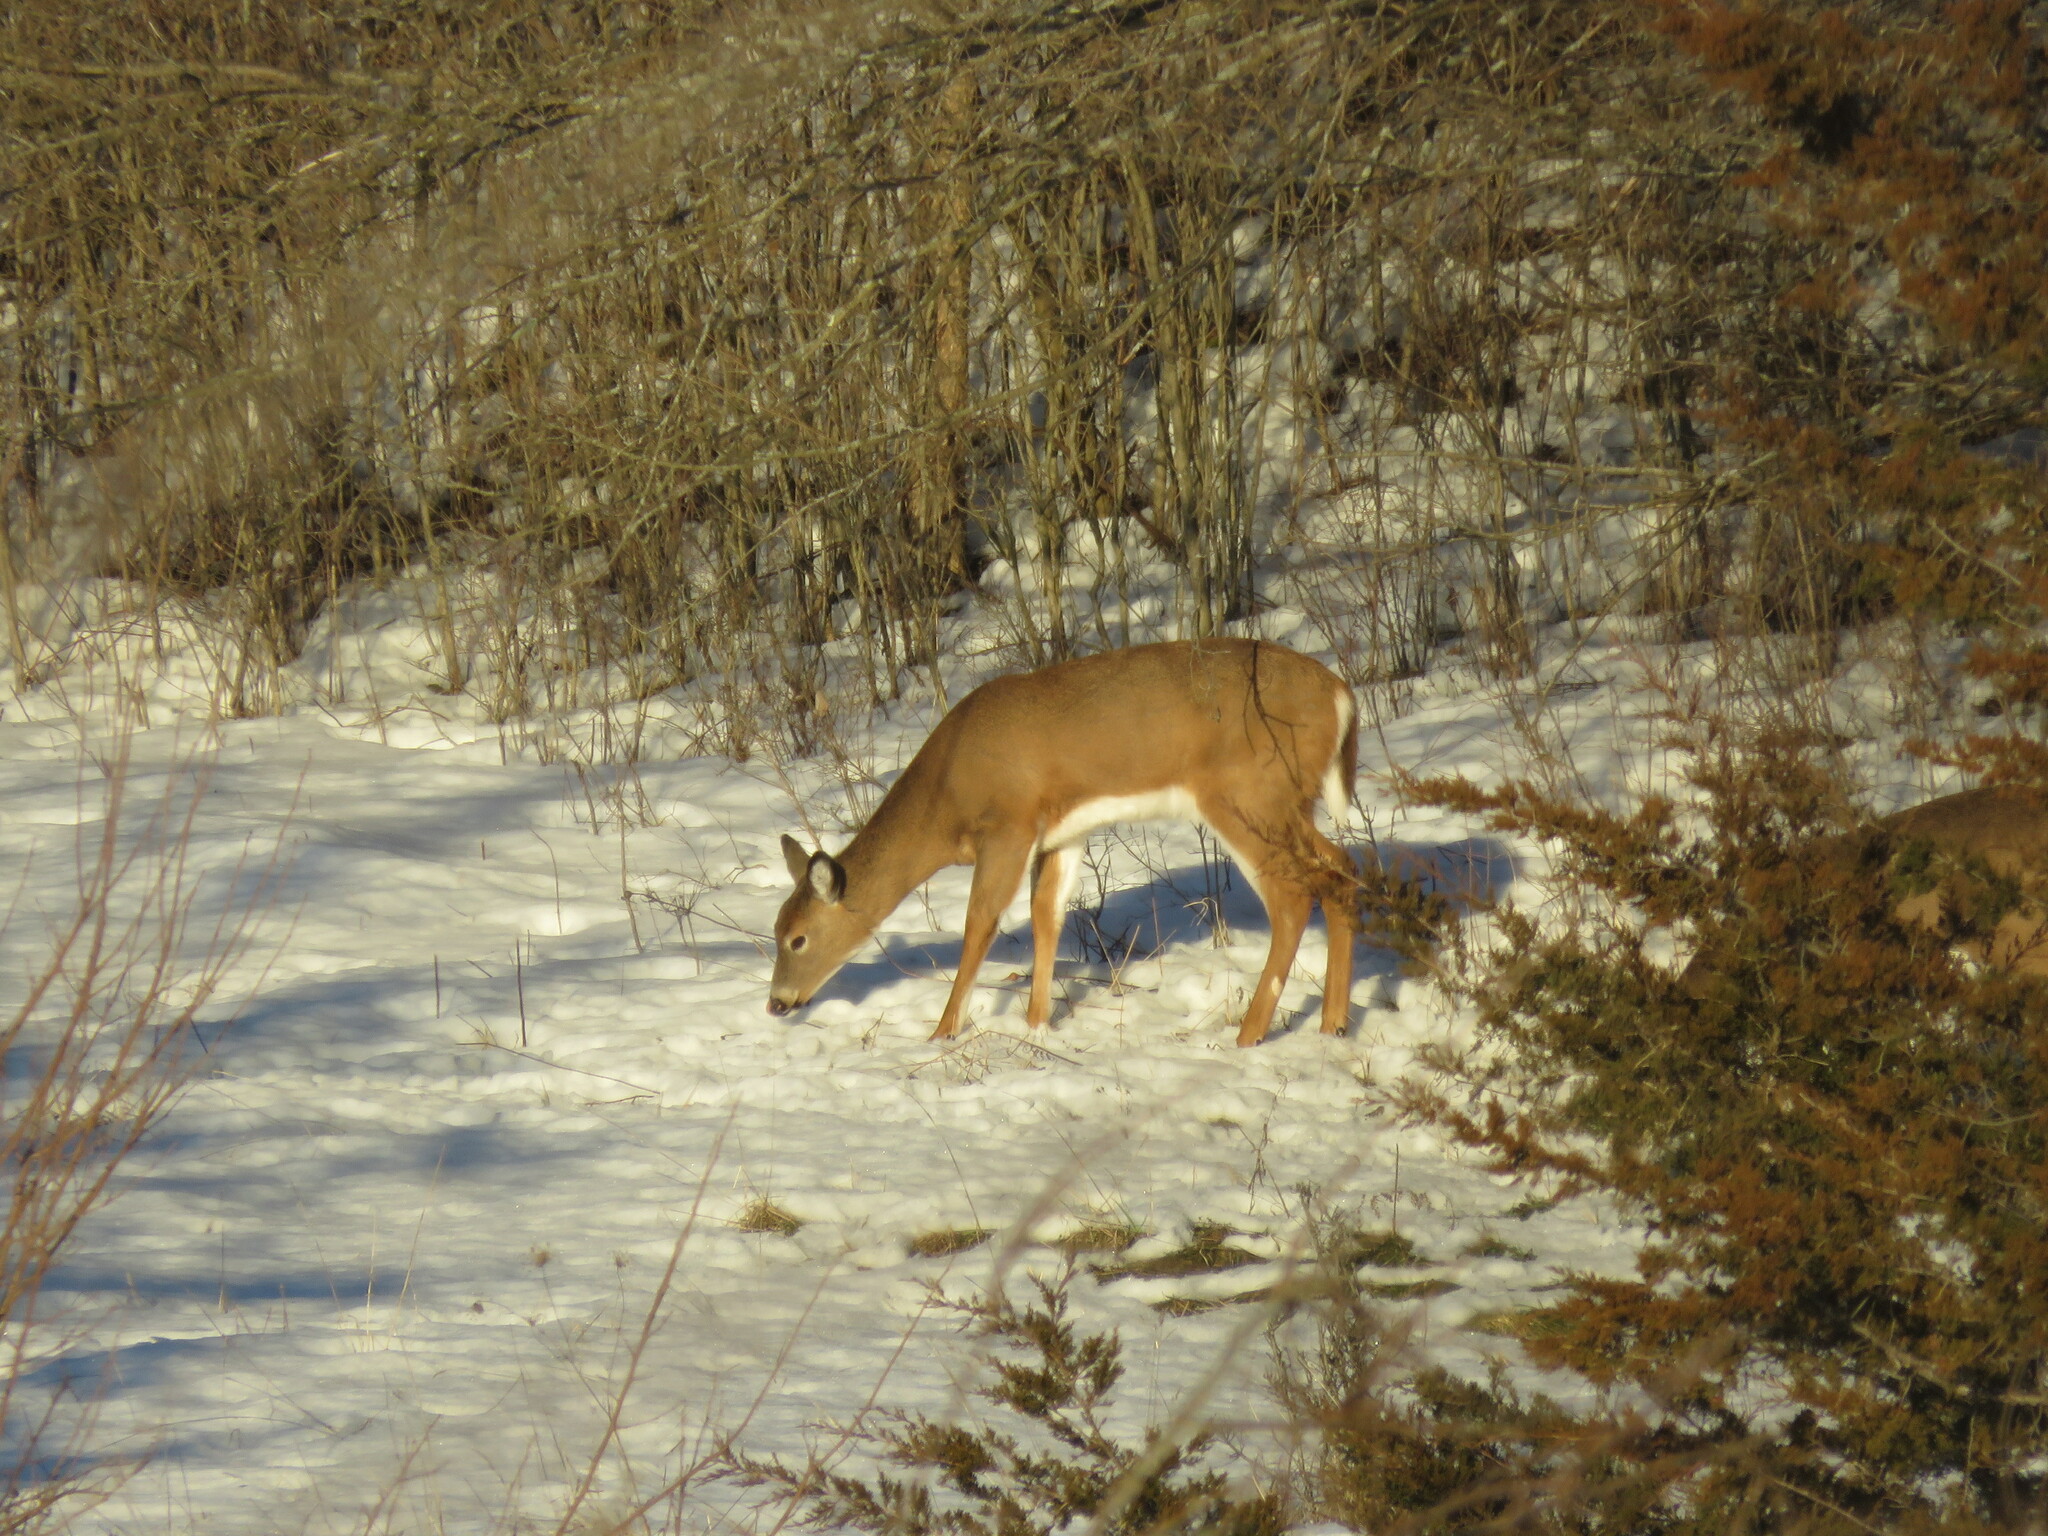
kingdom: Animalia
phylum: Chordata
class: Mammalia
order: Artiodactyla
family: Cervidae
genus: Odocoileus
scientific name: Odocoileus virginianus
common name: White-tailed deer
